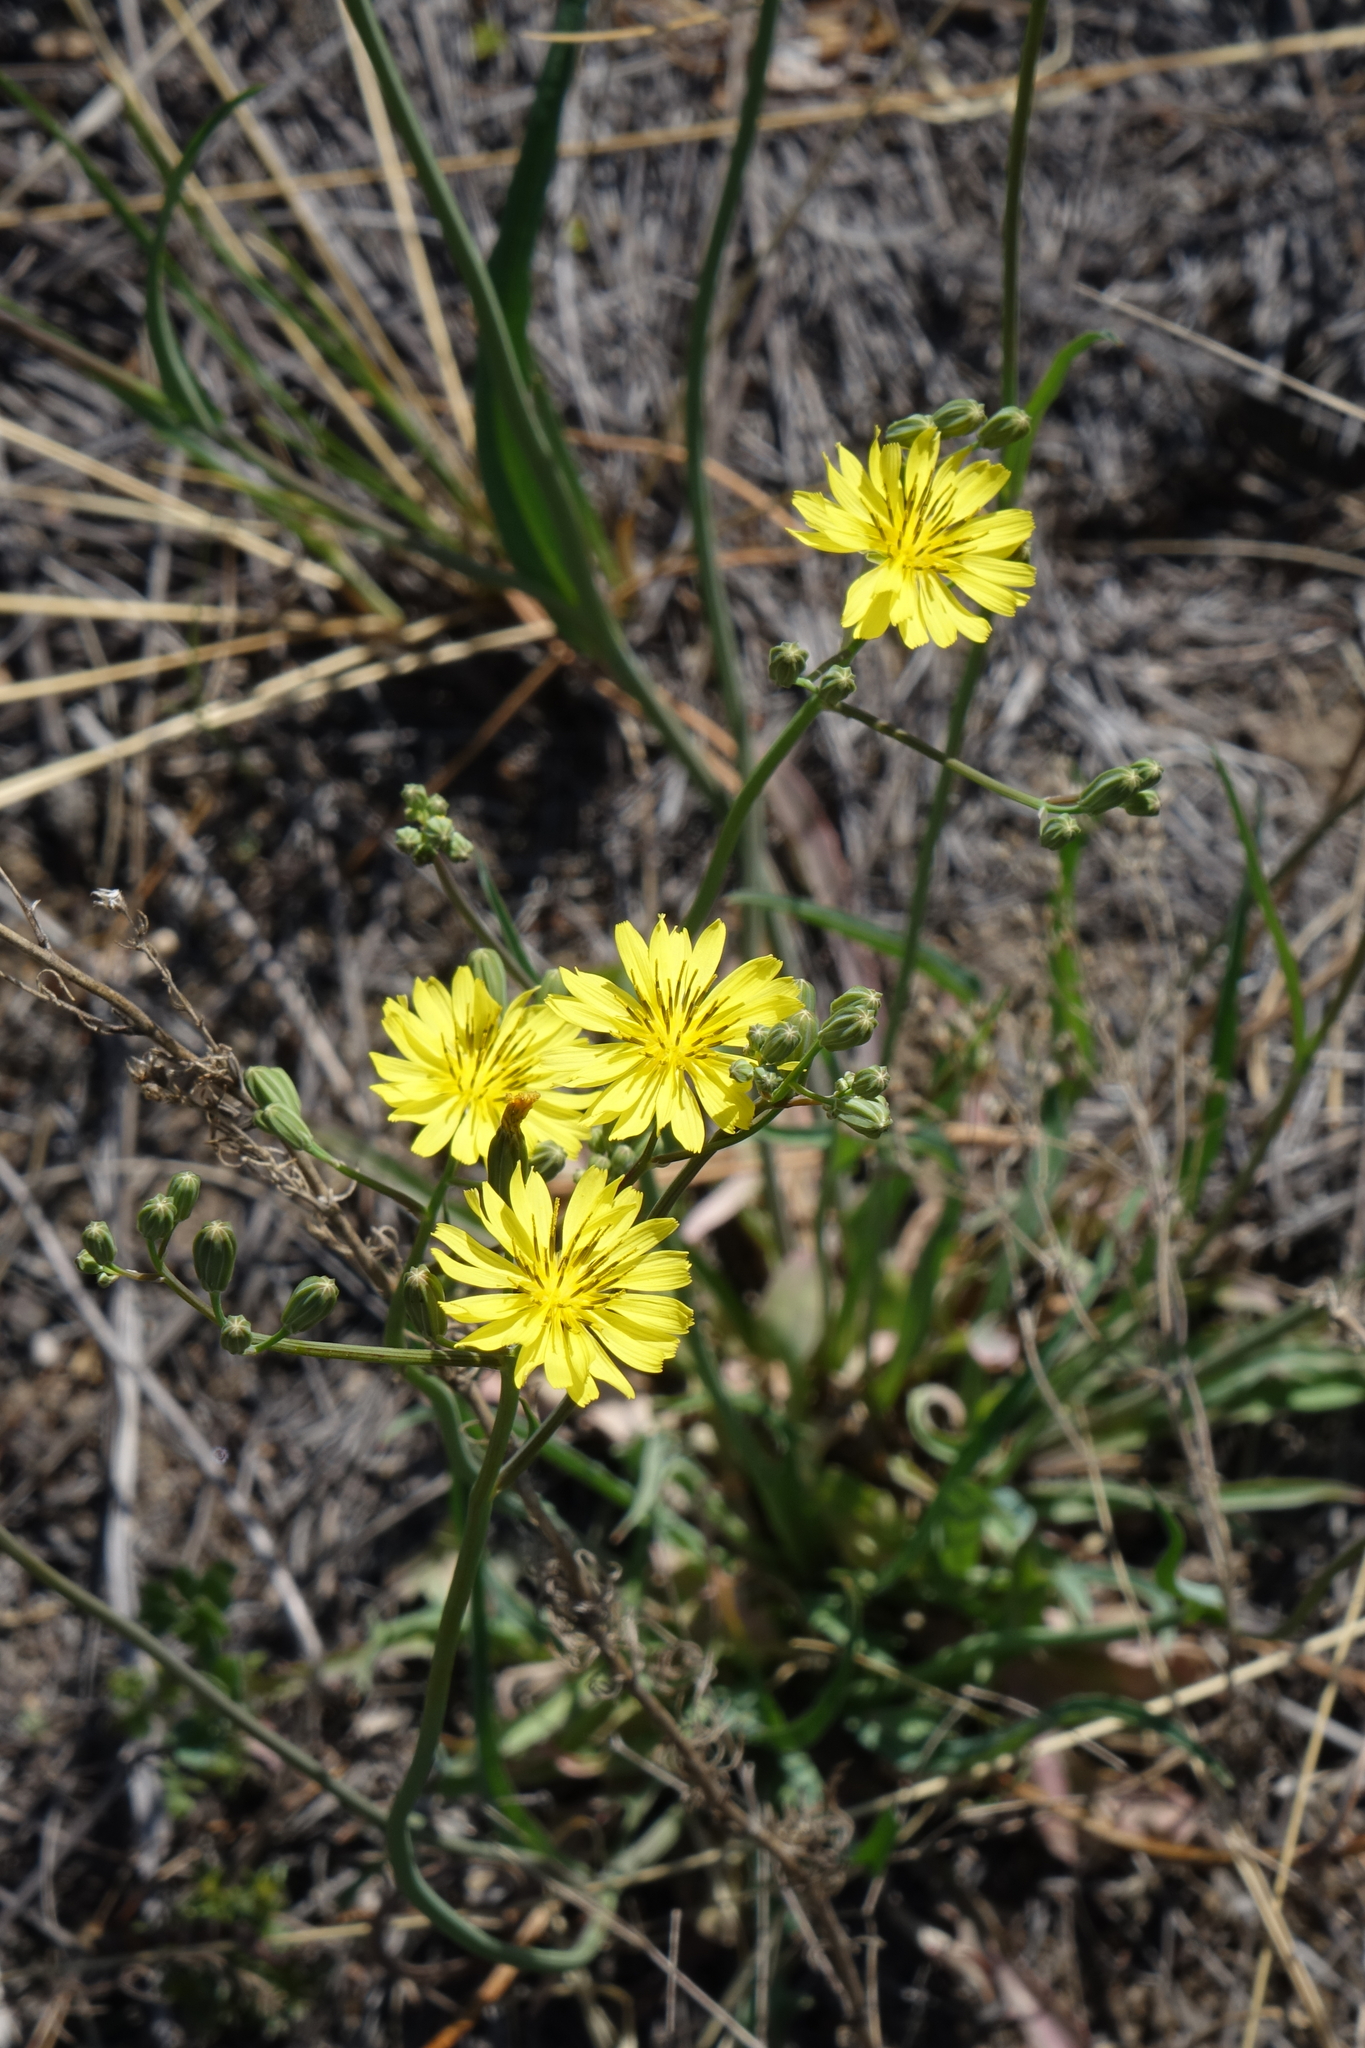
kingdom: Plantae
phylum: Tracheophyta
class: Magnoliopsida
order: Asterales
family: Asteraceae
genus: Ixeris
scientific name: Ixeris chinensis
